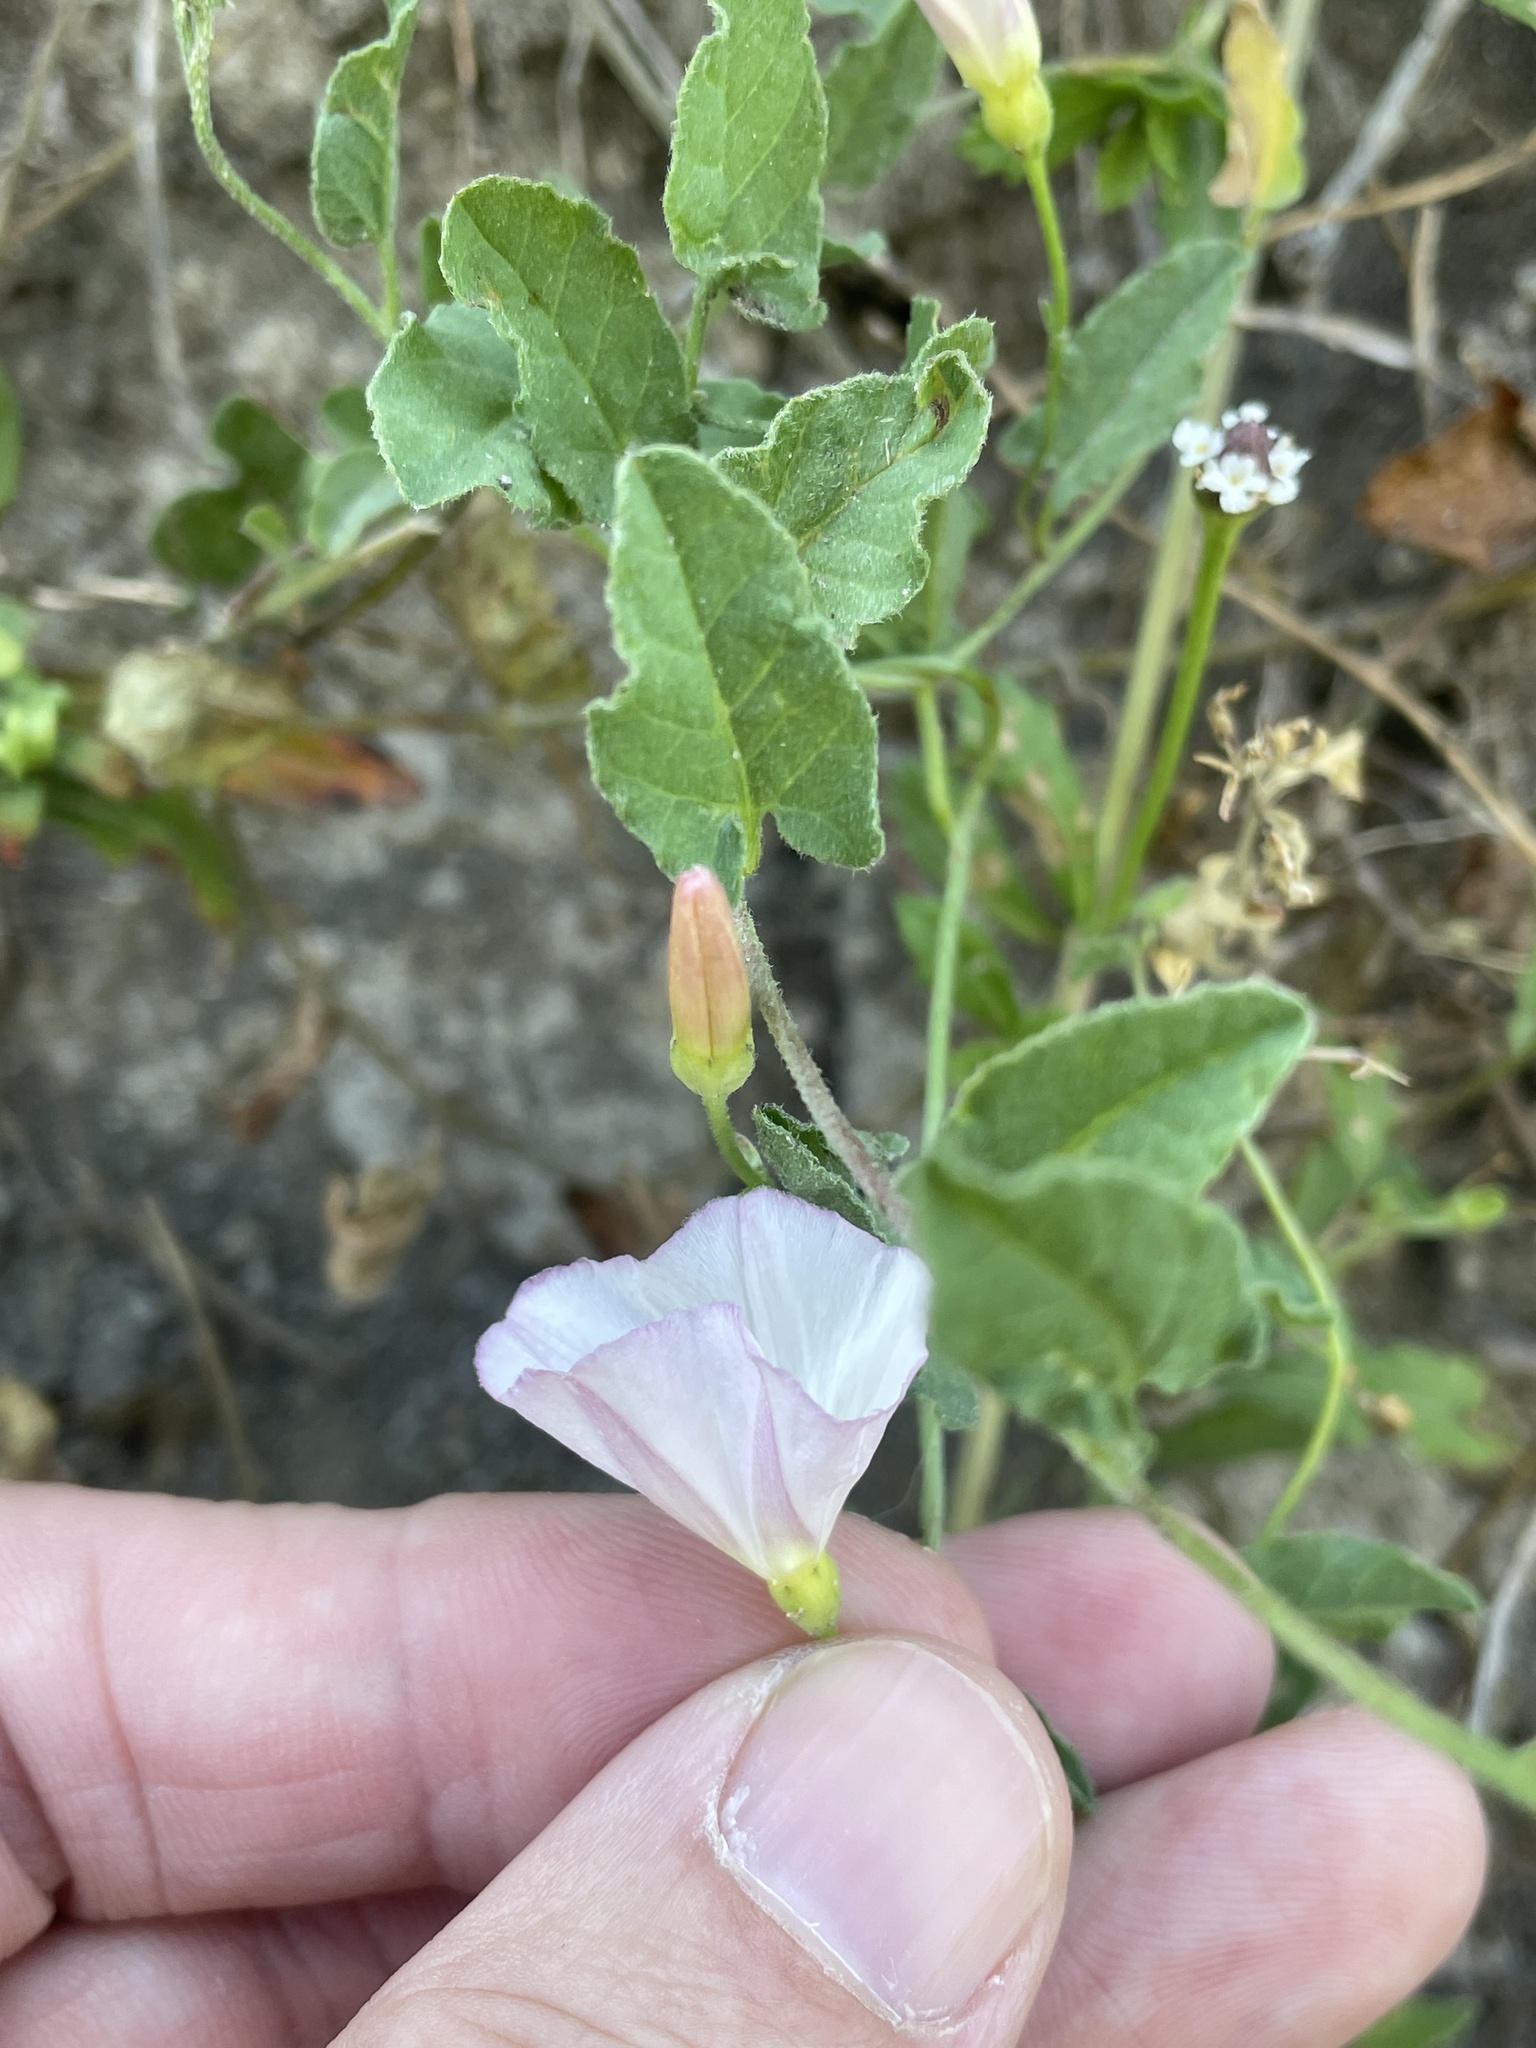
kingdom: Plantae
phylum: Tracheophyta
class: Magnoliopsida
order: Solanales
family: Convolvulaceae
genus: Convolvulus
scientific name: Convolvulus arvensis
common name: Field bindweed
